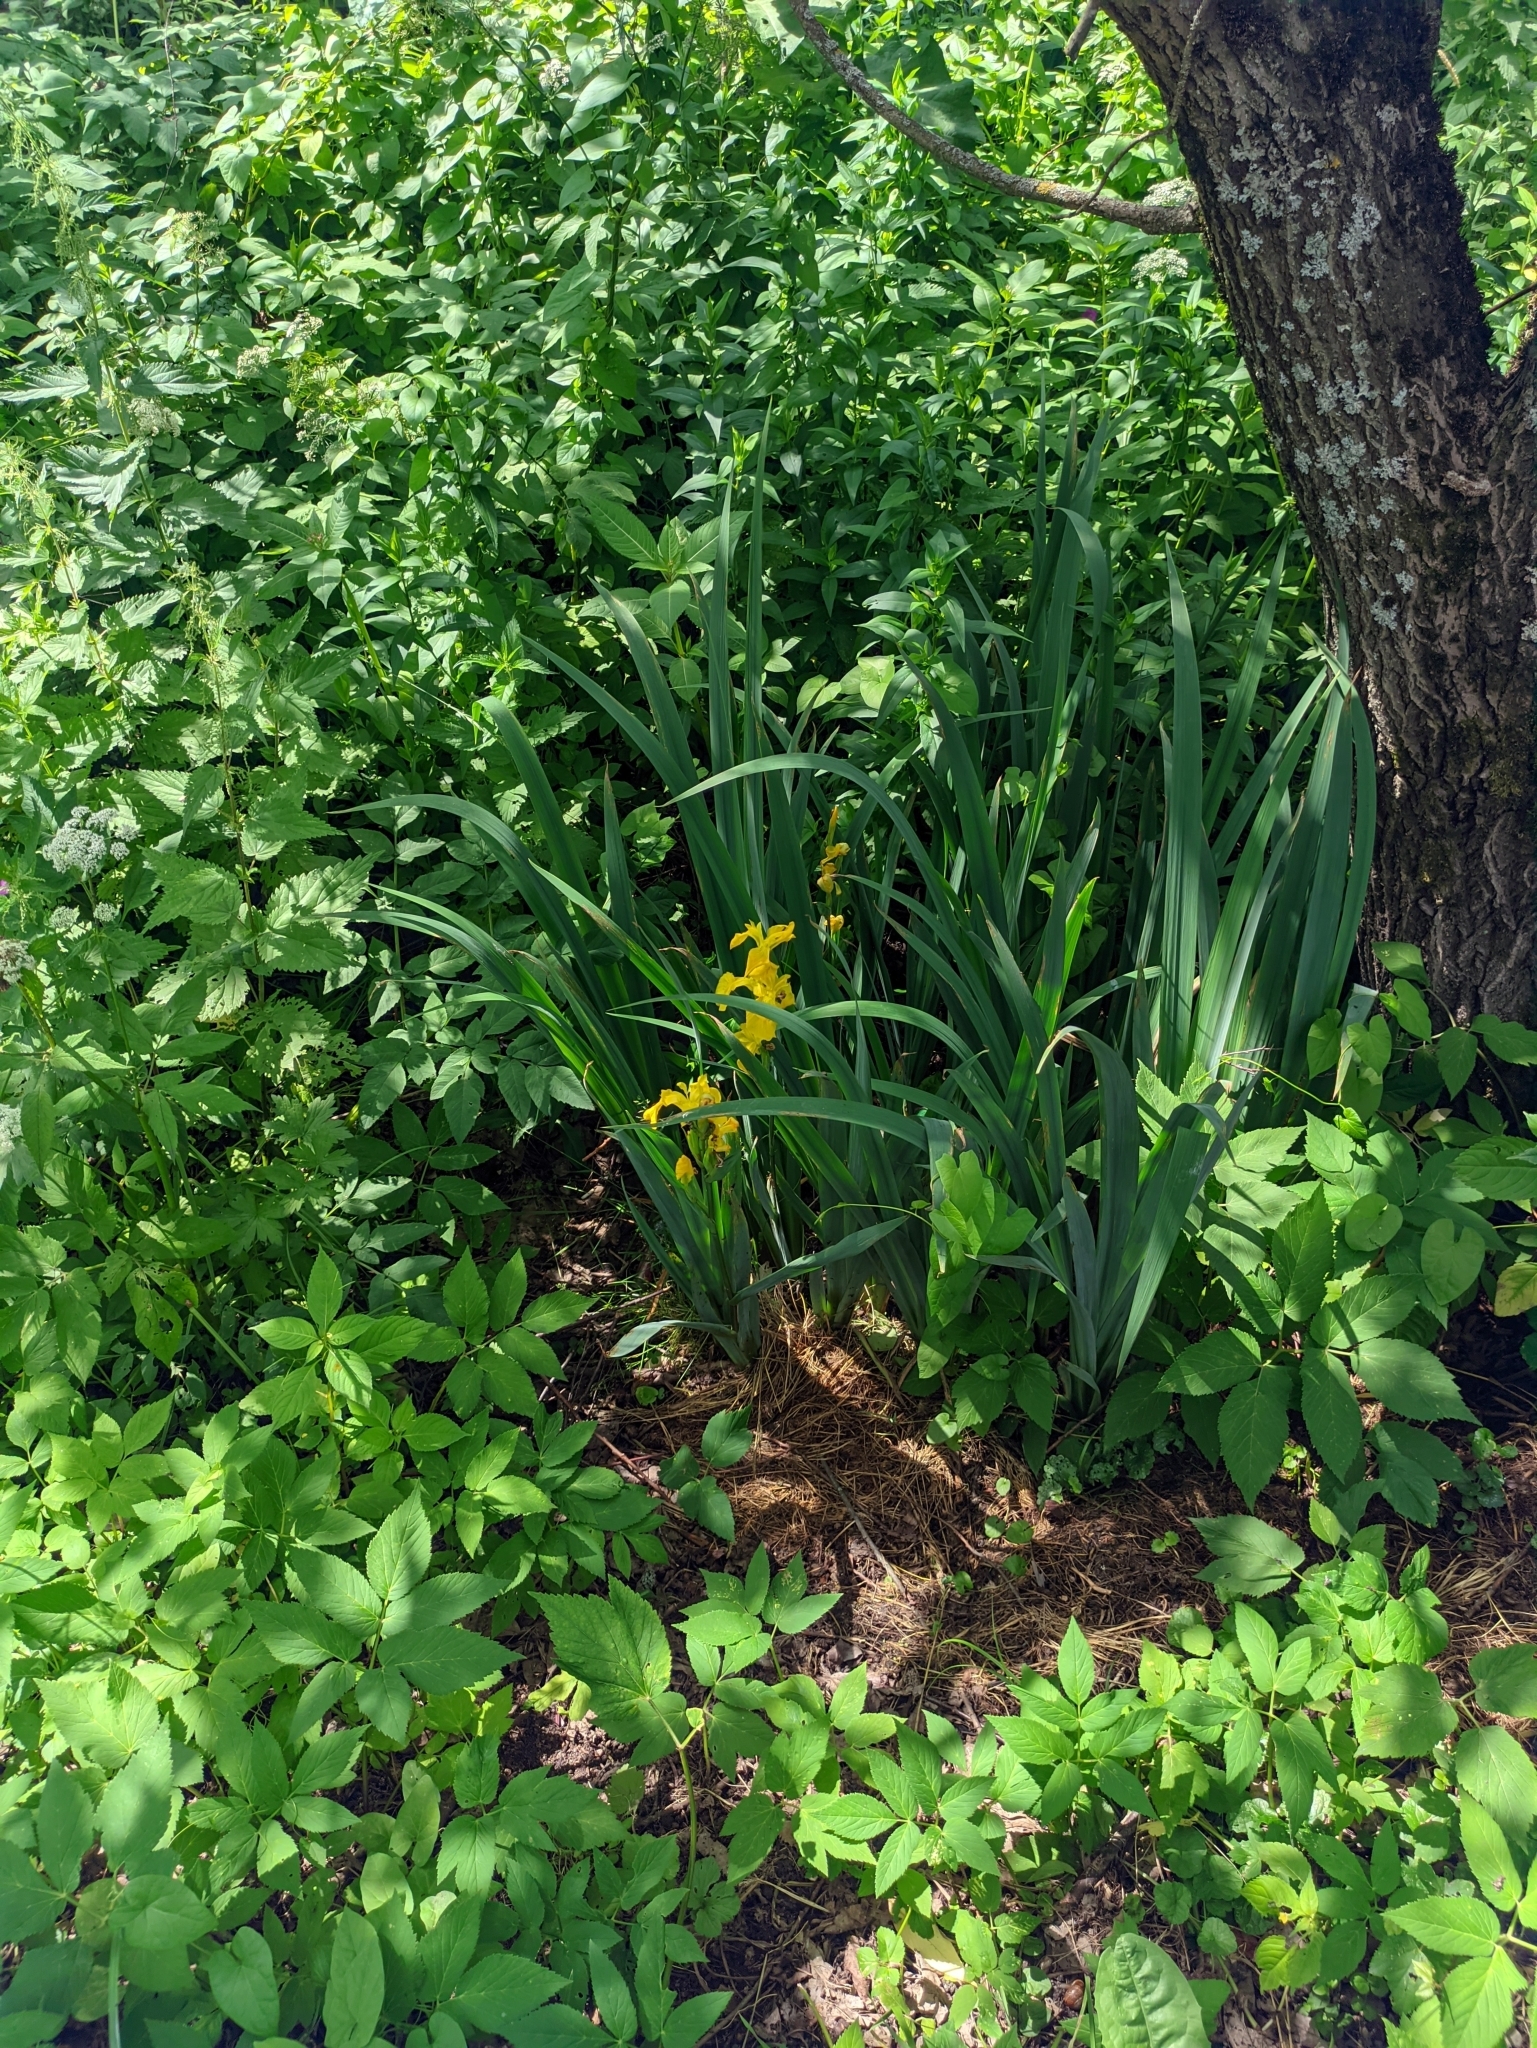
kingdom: Plantae
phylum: Tracheophyta
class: Liliopsida
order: Asparagales
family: Iridaceae
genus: Iris
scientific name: Iris pseudacorus
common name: Yellow flag
